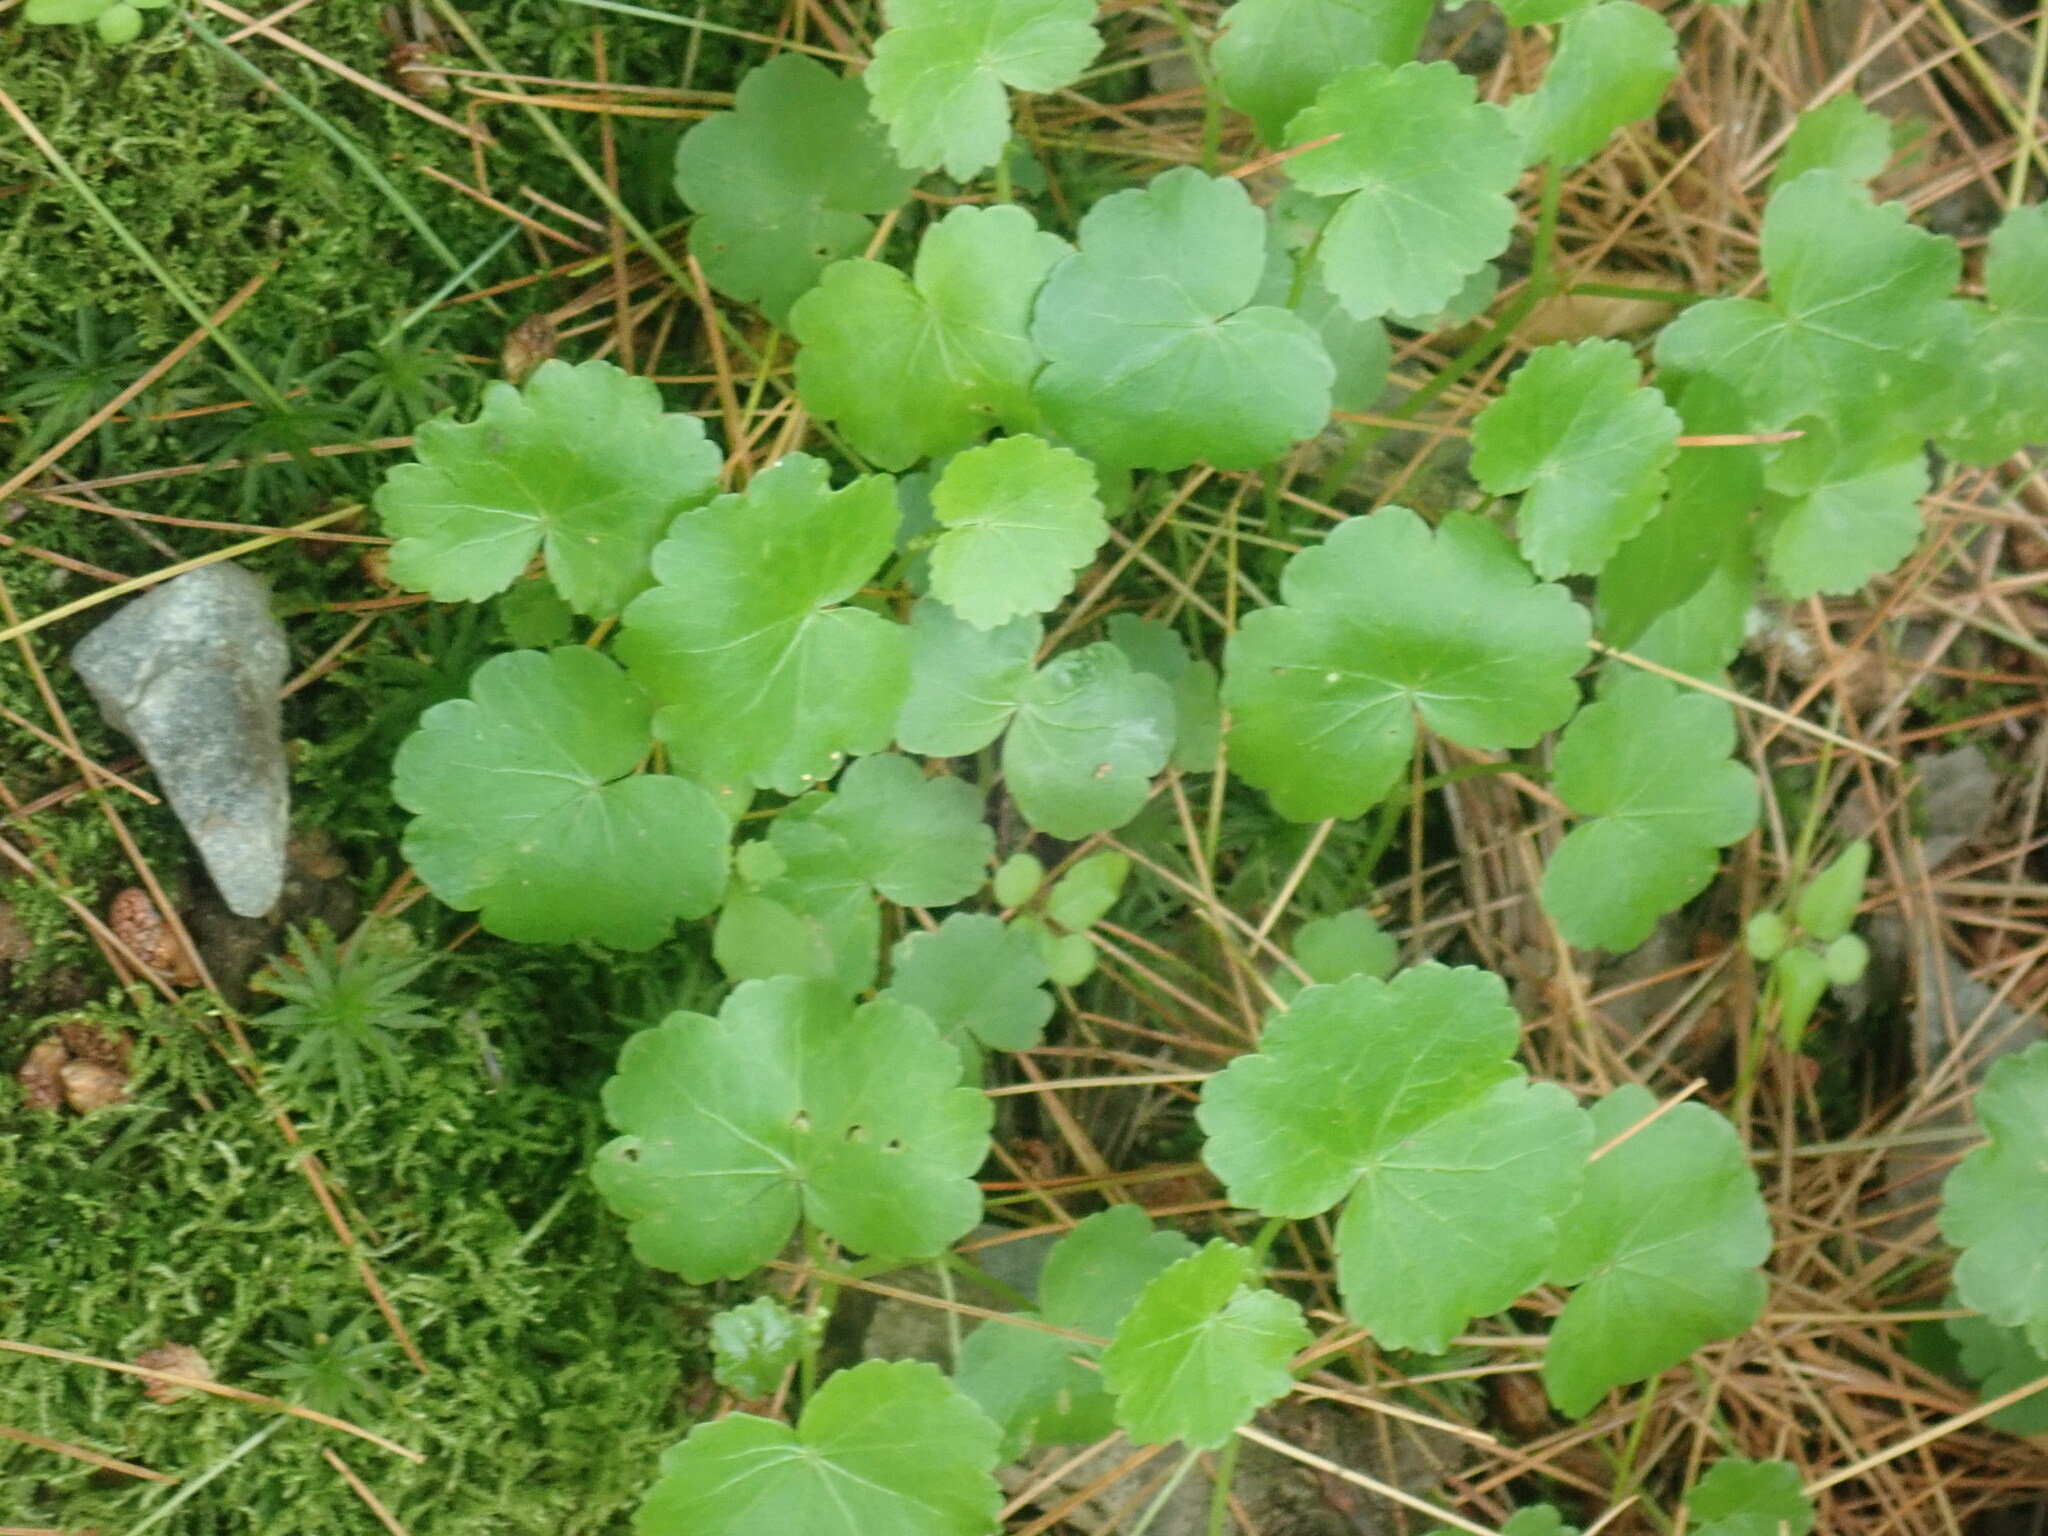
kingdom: Plantae
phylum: Tracheophyta
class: Magnoliopsida
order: Apiales
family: Araliaceae
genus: Hydrocotyle
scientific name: Hydrocotyle americana
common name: American water-pennywort
